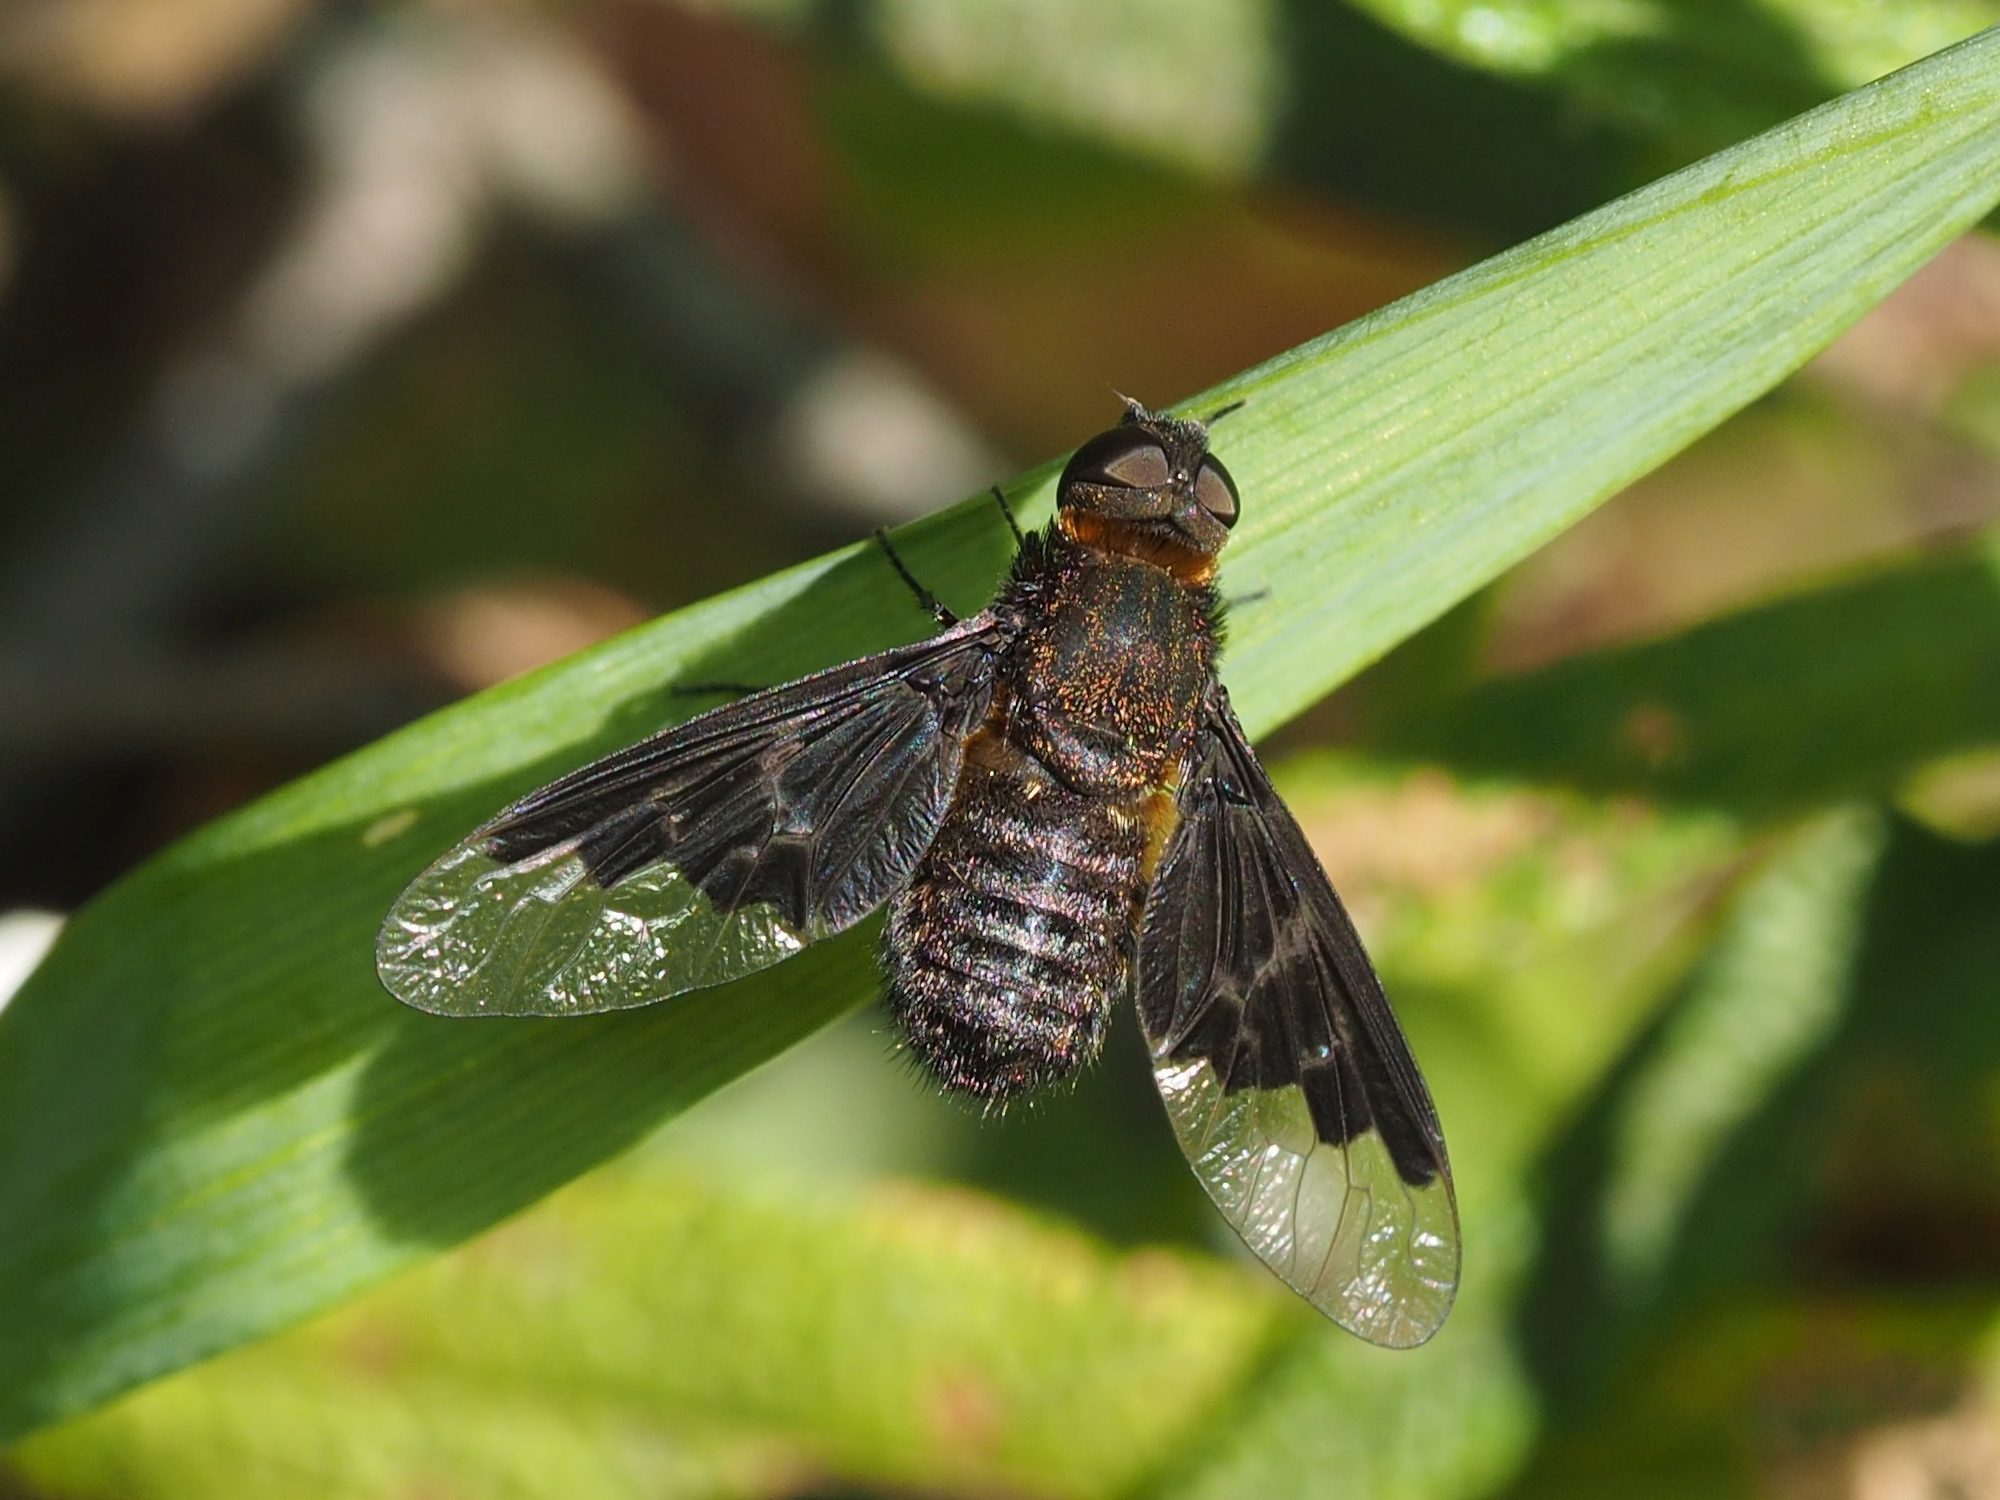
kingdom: Animalia
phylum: Arthropoda
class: Insecta
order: Diptera
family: Bombyliidae
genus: Hemipenthes
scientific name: Hemipenthes morio
